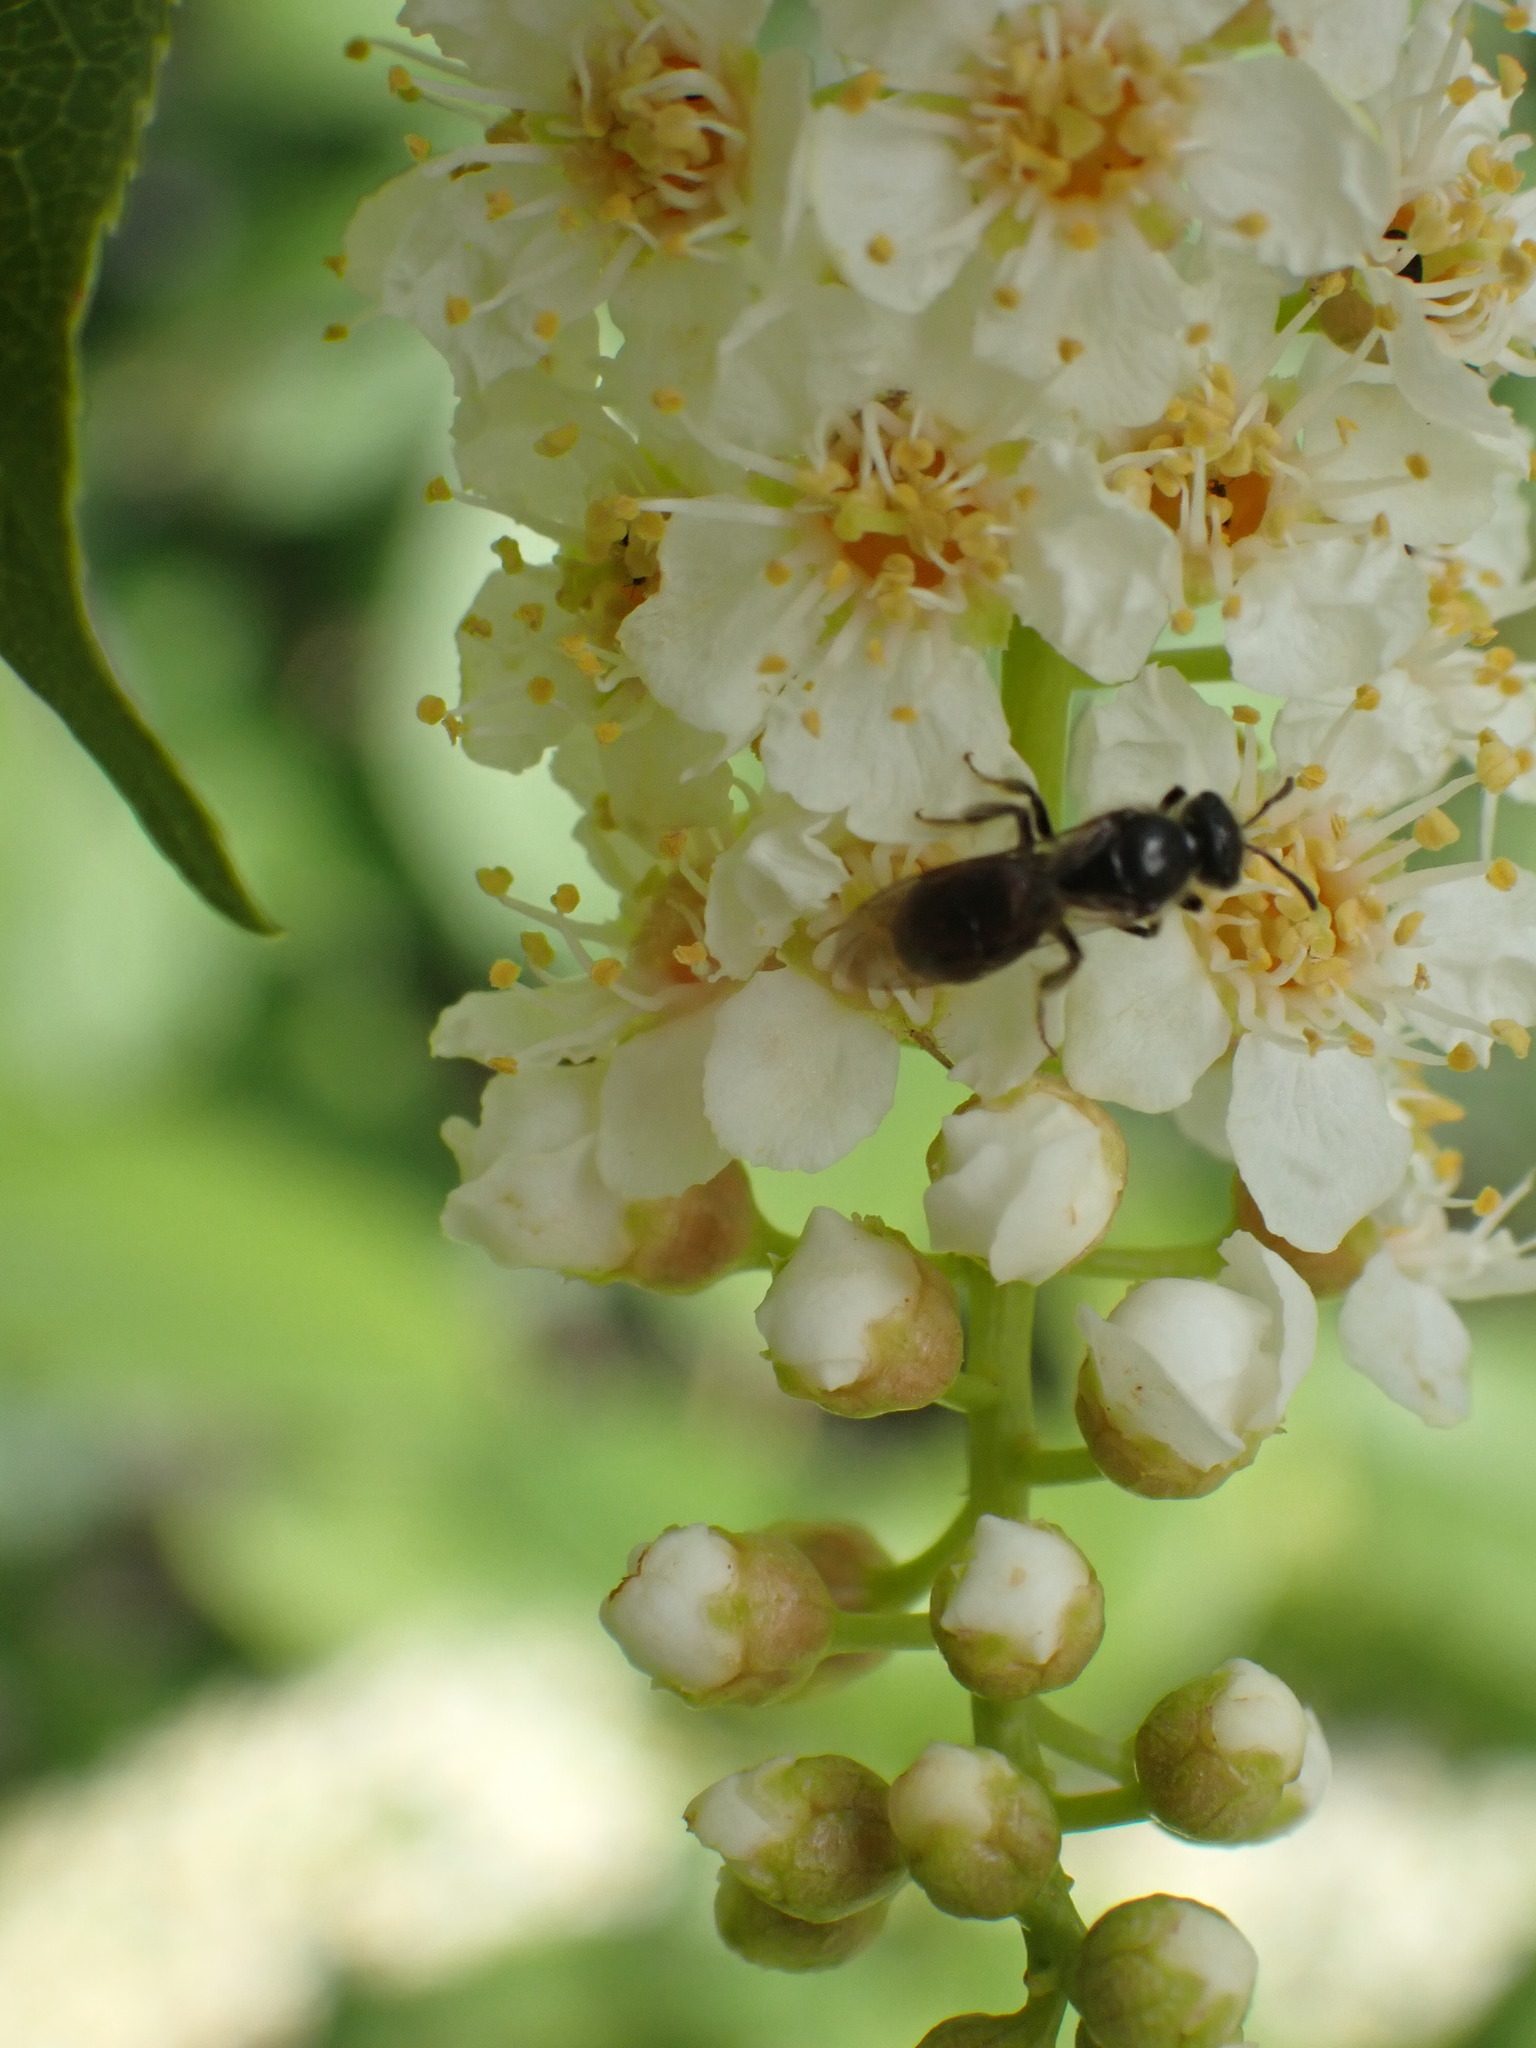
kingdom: Plantae
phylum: Tracheophyta
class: Magnoliopsida
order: Rosales
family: Rosaceae
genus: Prunus
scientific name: Prunus virginiana
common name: Chokecherry
